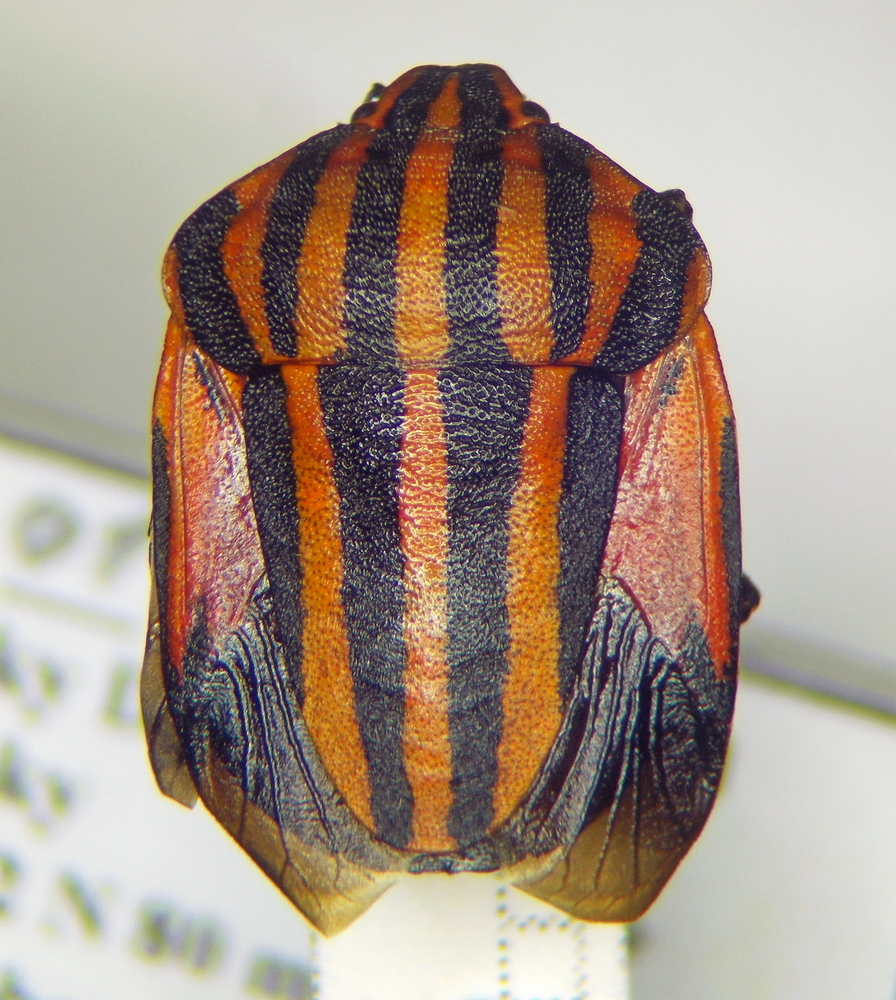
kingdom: Animalia
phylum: Arthropoda
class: Insecta
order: Hemiptera
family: Pentatomidae
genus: Graphosoma
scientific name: Graphosoma italicum
